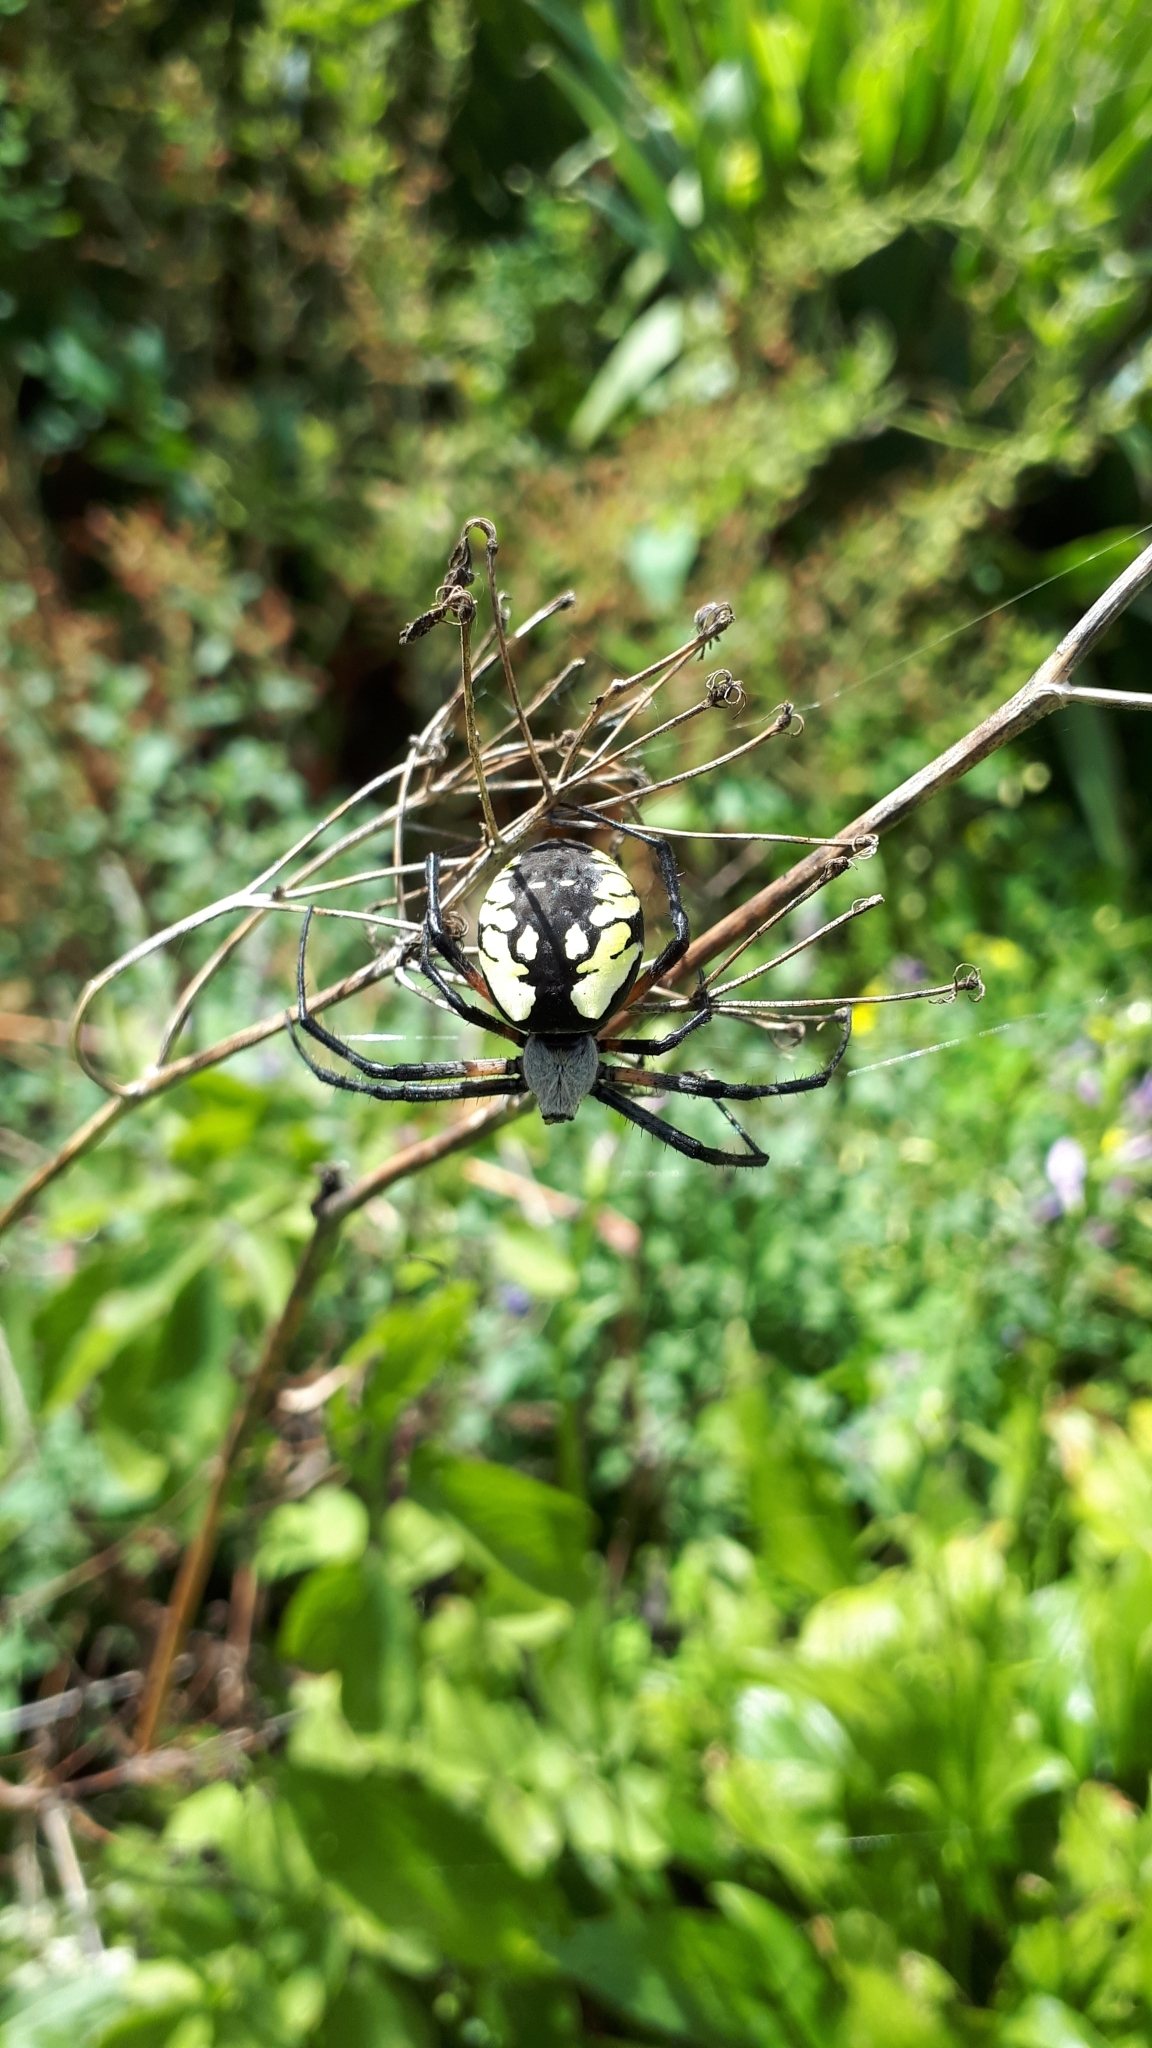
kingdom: Animalia
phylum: Arthropoda
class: Arachnida
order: Araneae
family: Araneidae
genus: Argiope
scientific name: Argiope aurantia
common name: Orb weavers
